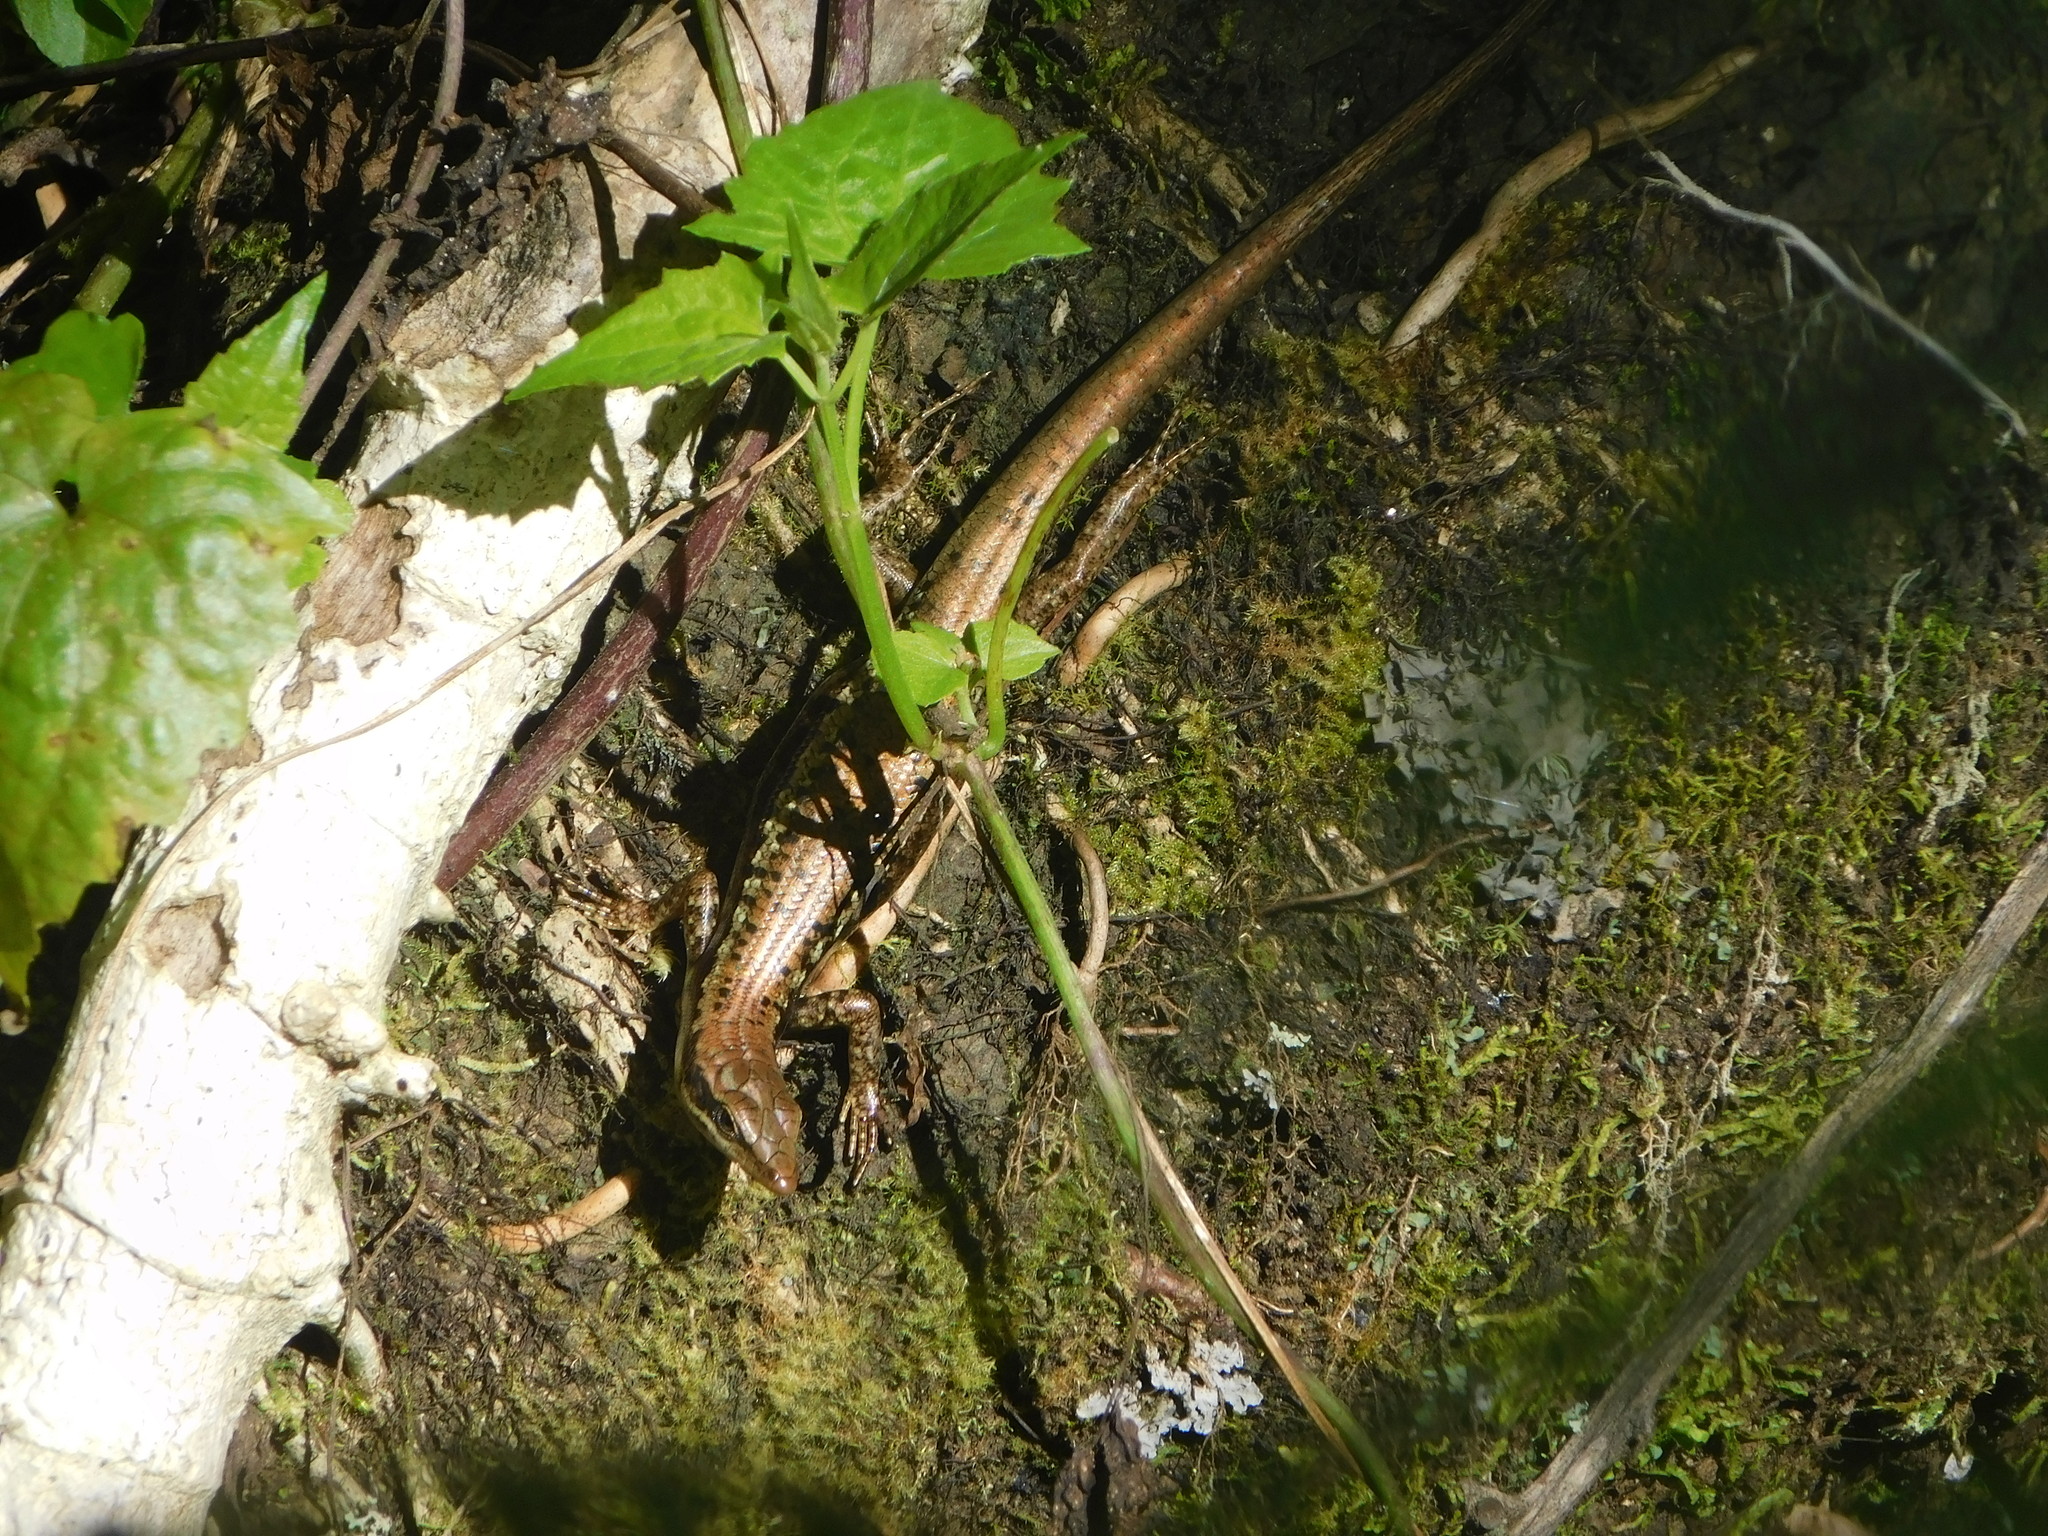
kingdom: Animalia
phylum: Chordata
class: Squamata
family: Scincidae
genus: Emoia
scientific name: Emoia nigromarginata
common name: Black-bordered emo skink
